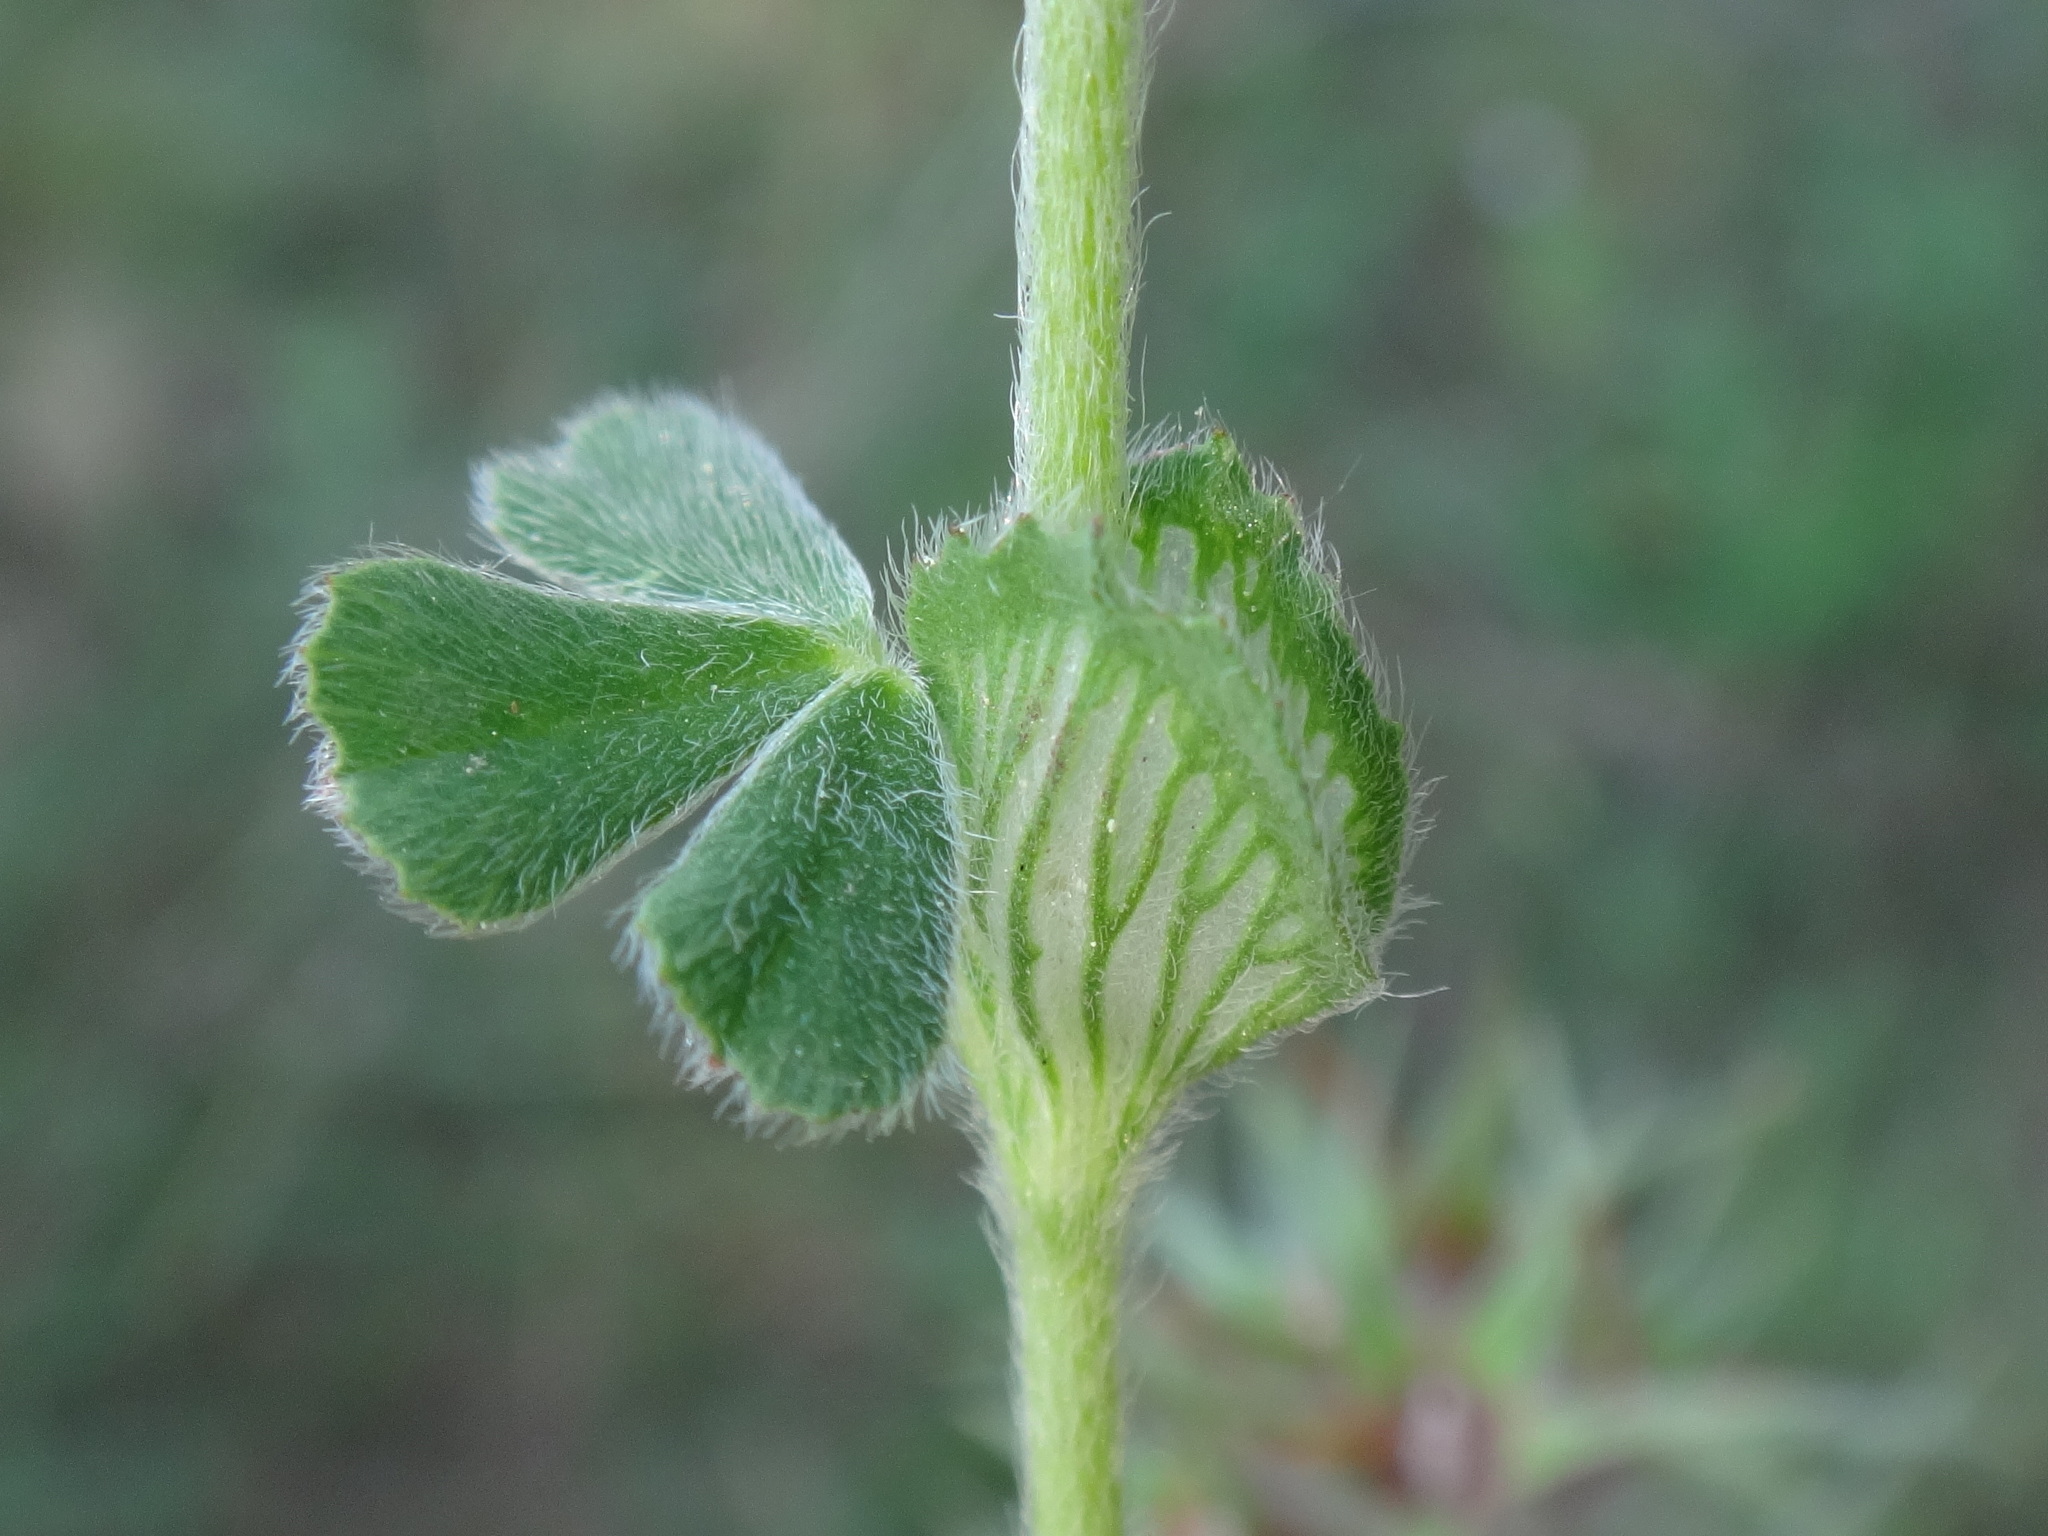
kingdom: Plantae
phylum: Tracheophyta
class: Magnoliopsida
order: Fabales
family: Fabaceae
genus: Trifolium
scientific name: Trifolium stellatum
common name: Starry clover
